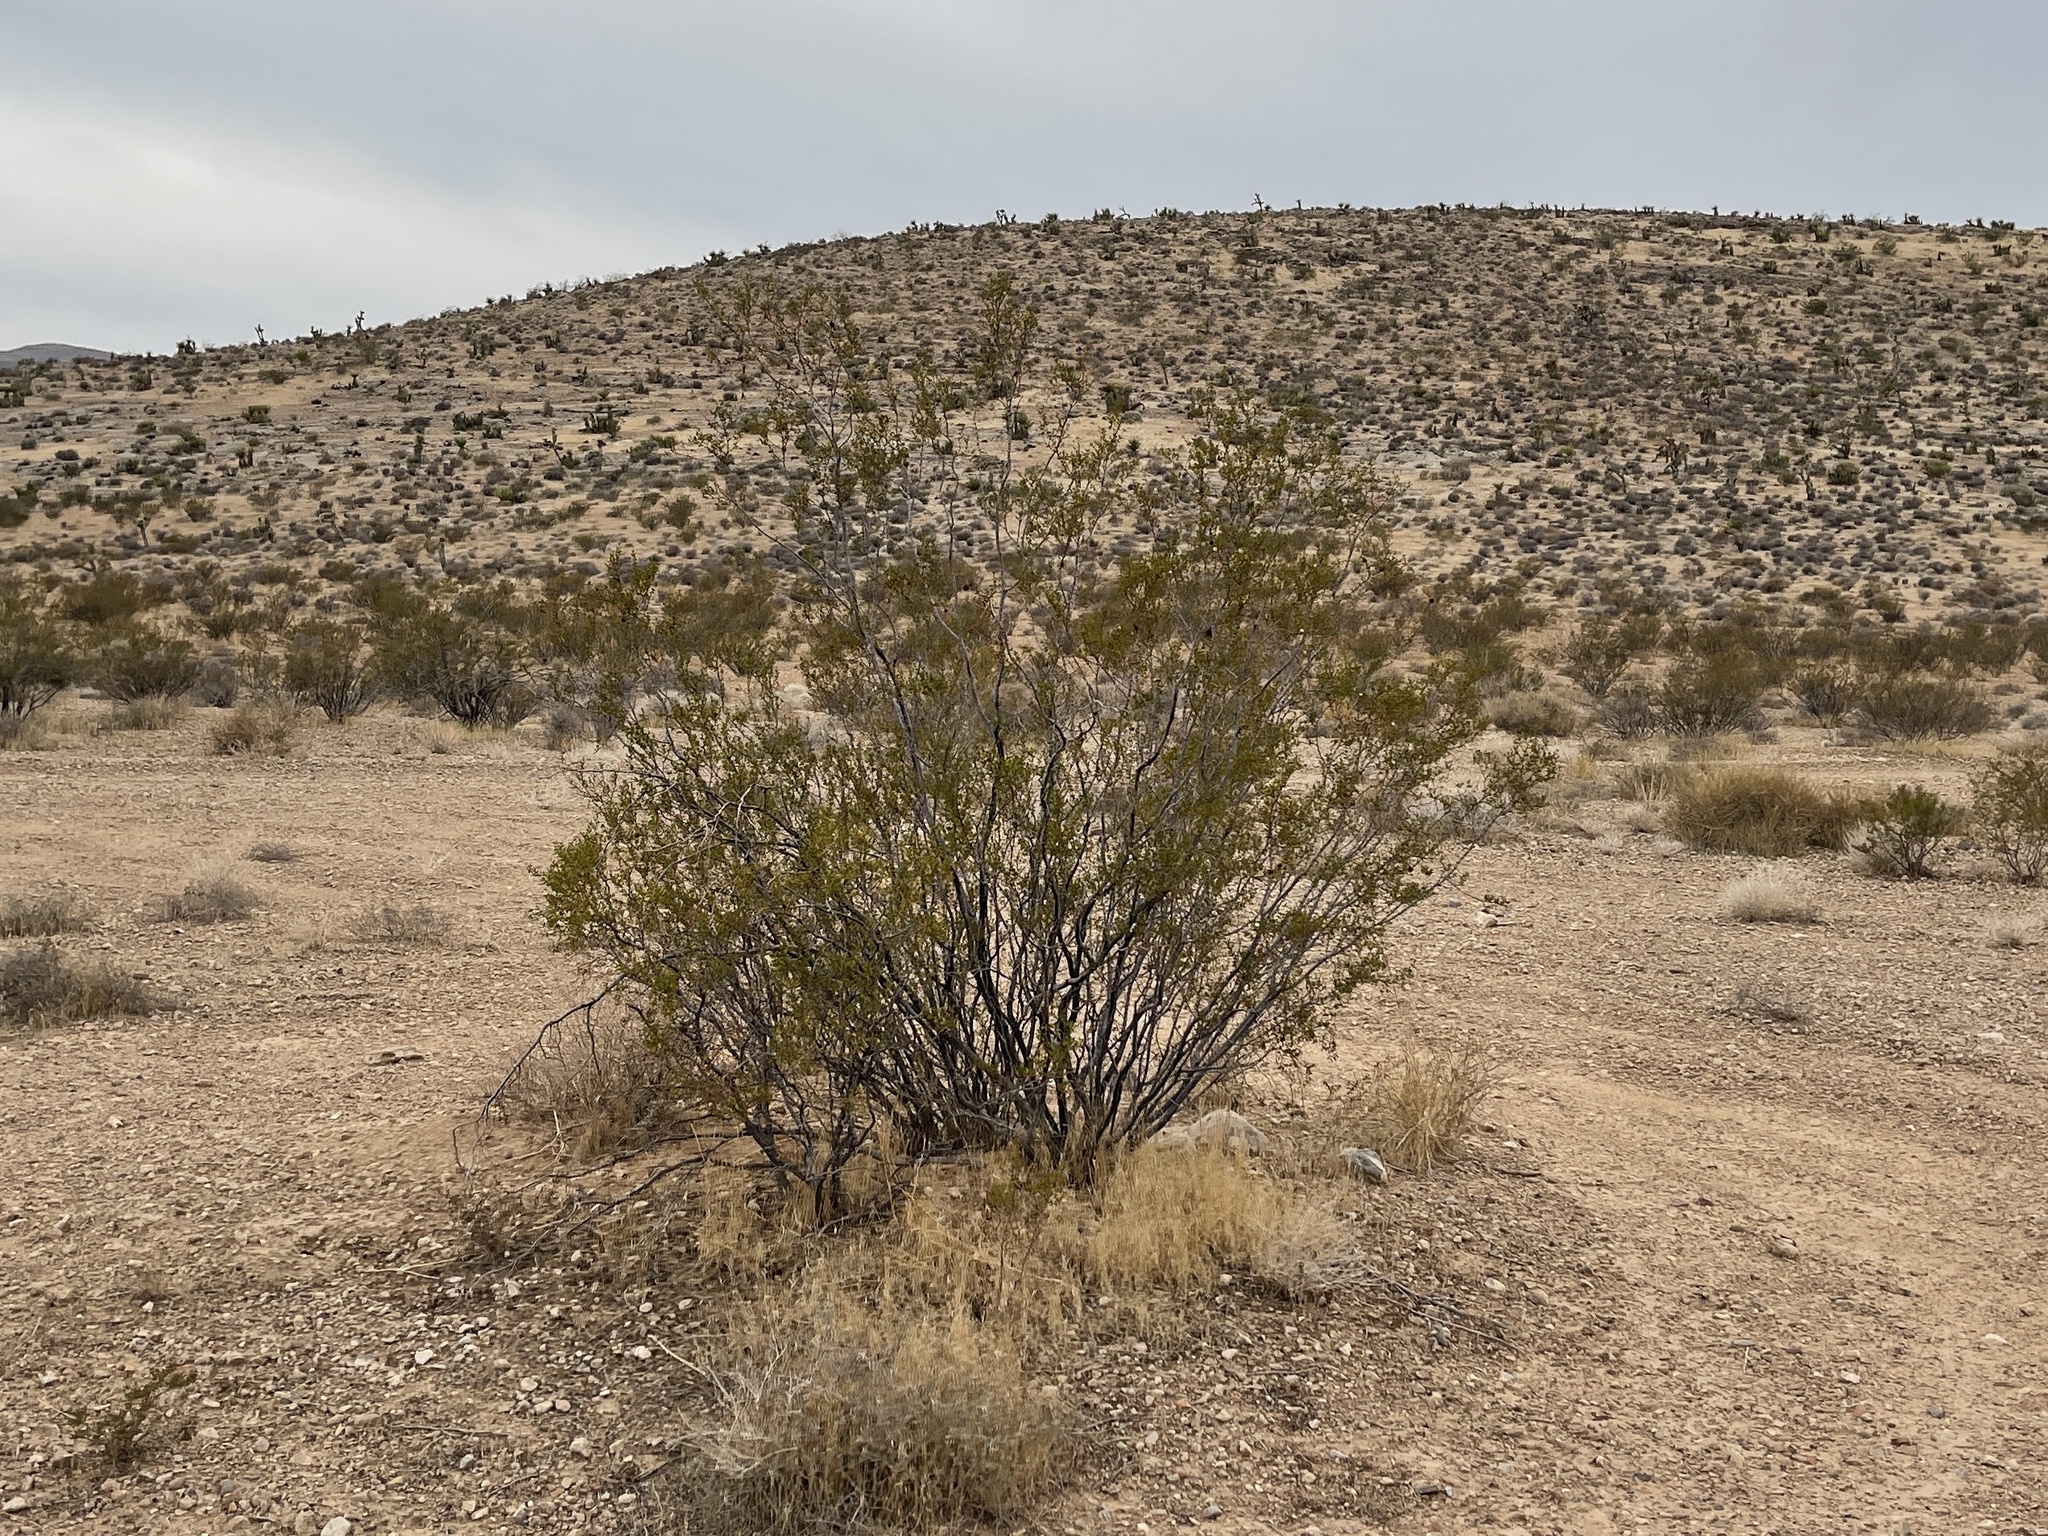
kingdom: Plantae
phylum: Tracheophyta
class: Magnoliopsida
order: Zygophyllales
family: Zygophyllaceae
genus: Larrea
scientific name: Larrea tridentata
